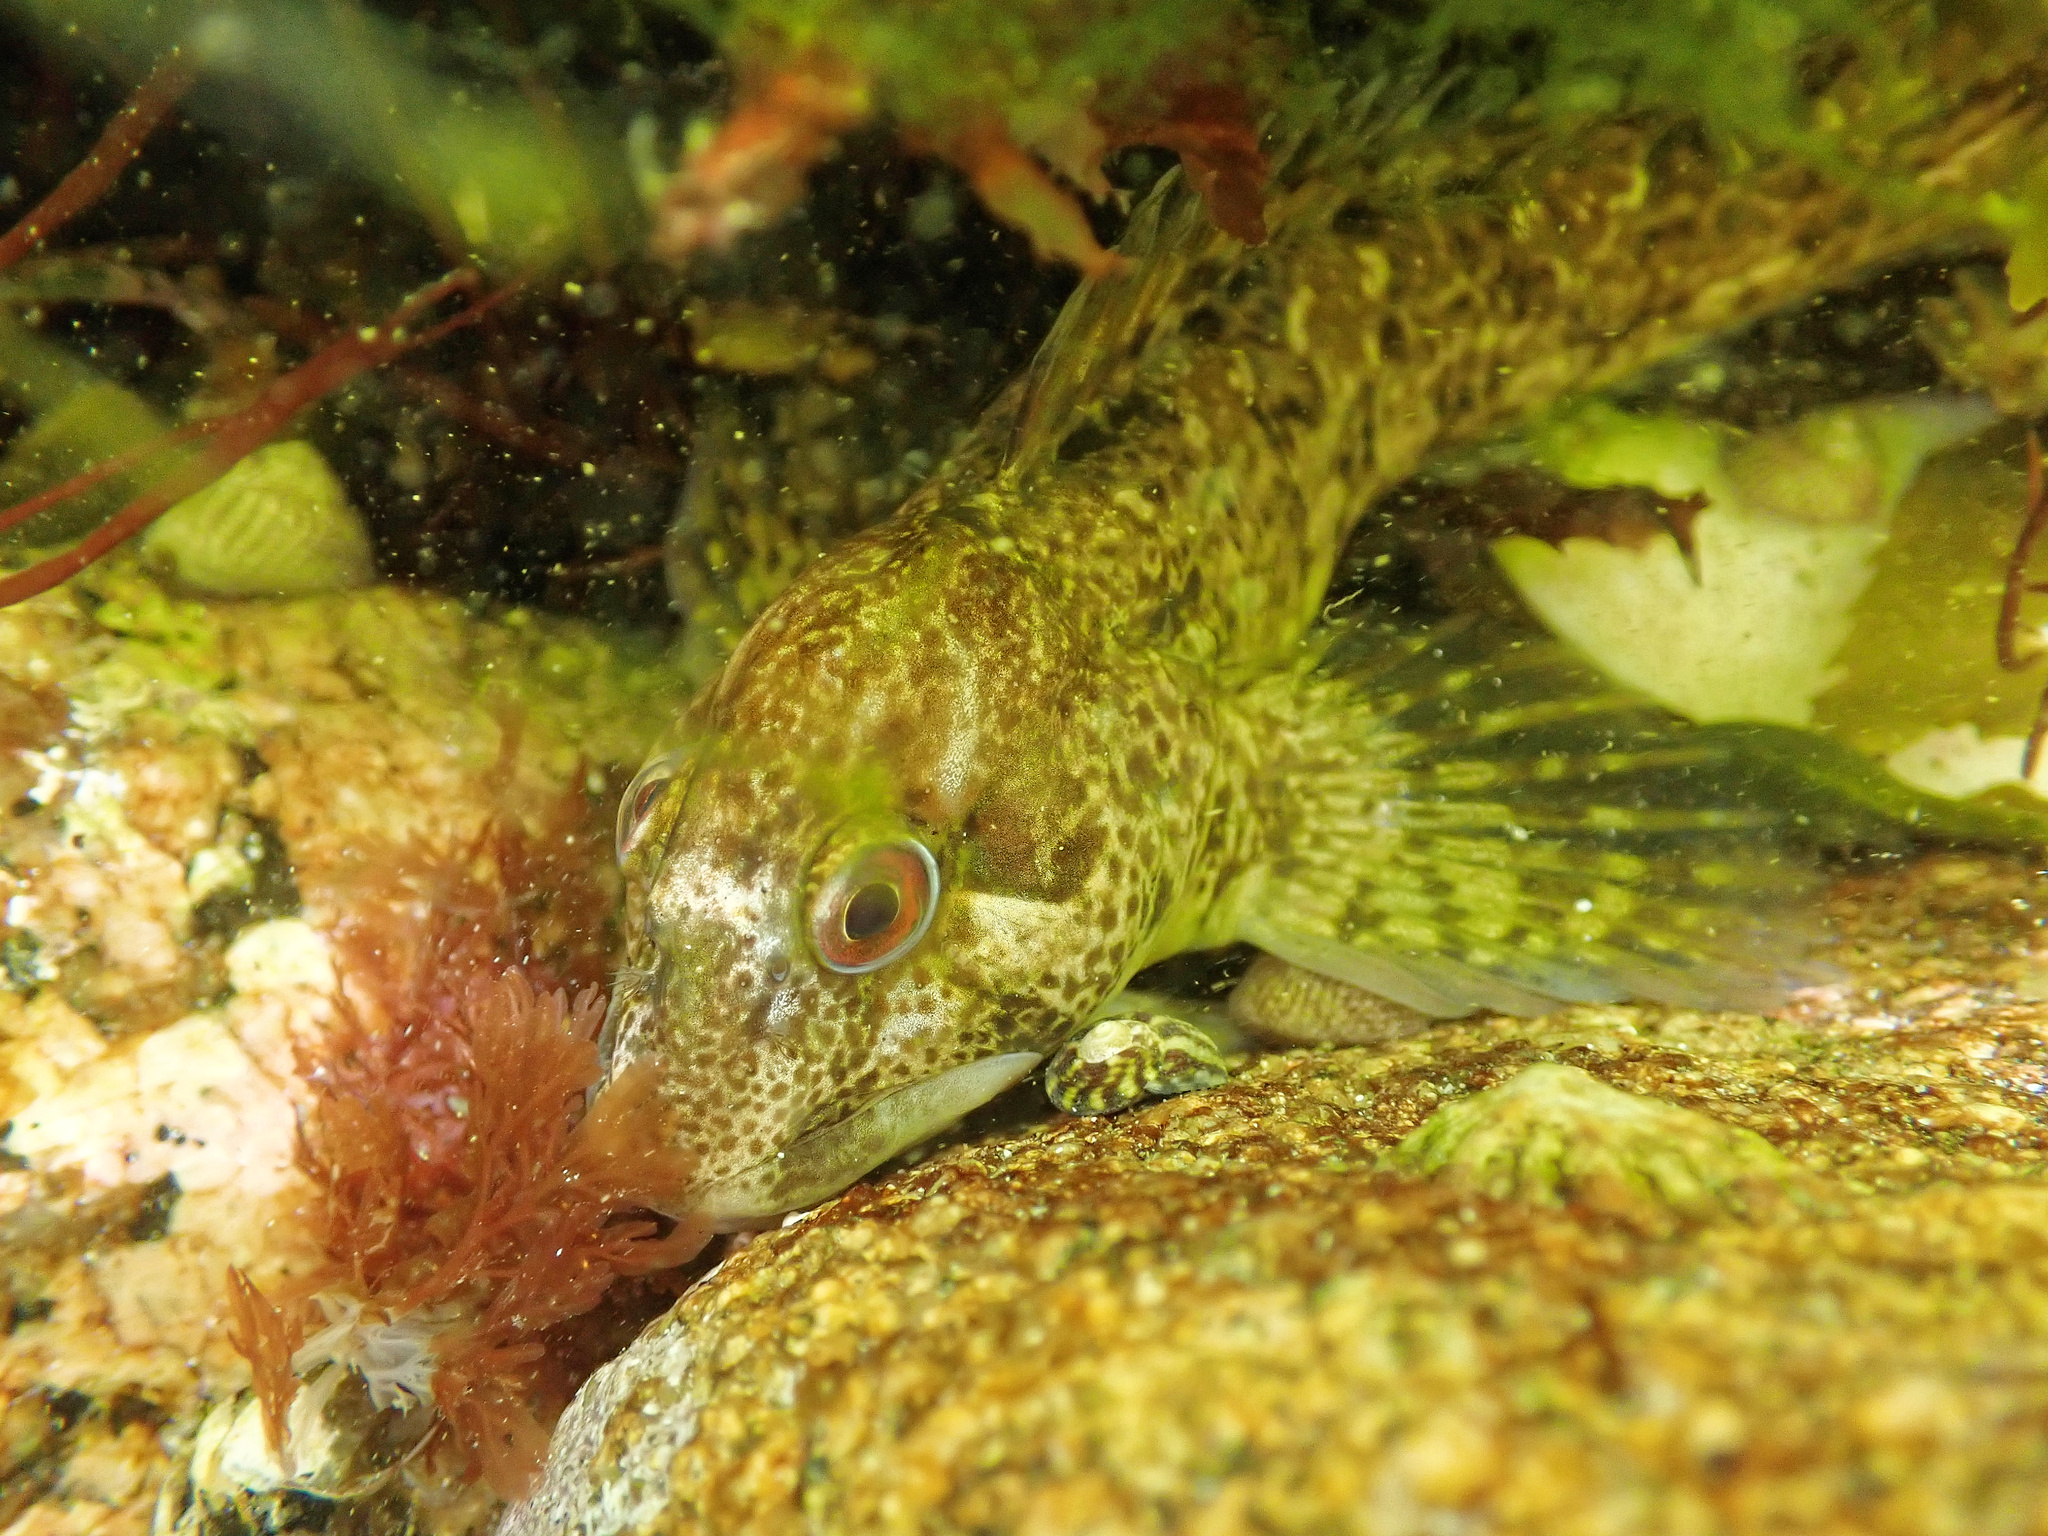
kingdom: Animalia
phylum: Chordata
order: Perciformes
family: Blenniidae
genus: Lipophrys
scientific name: Lipophrys pholis
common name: Shanny
